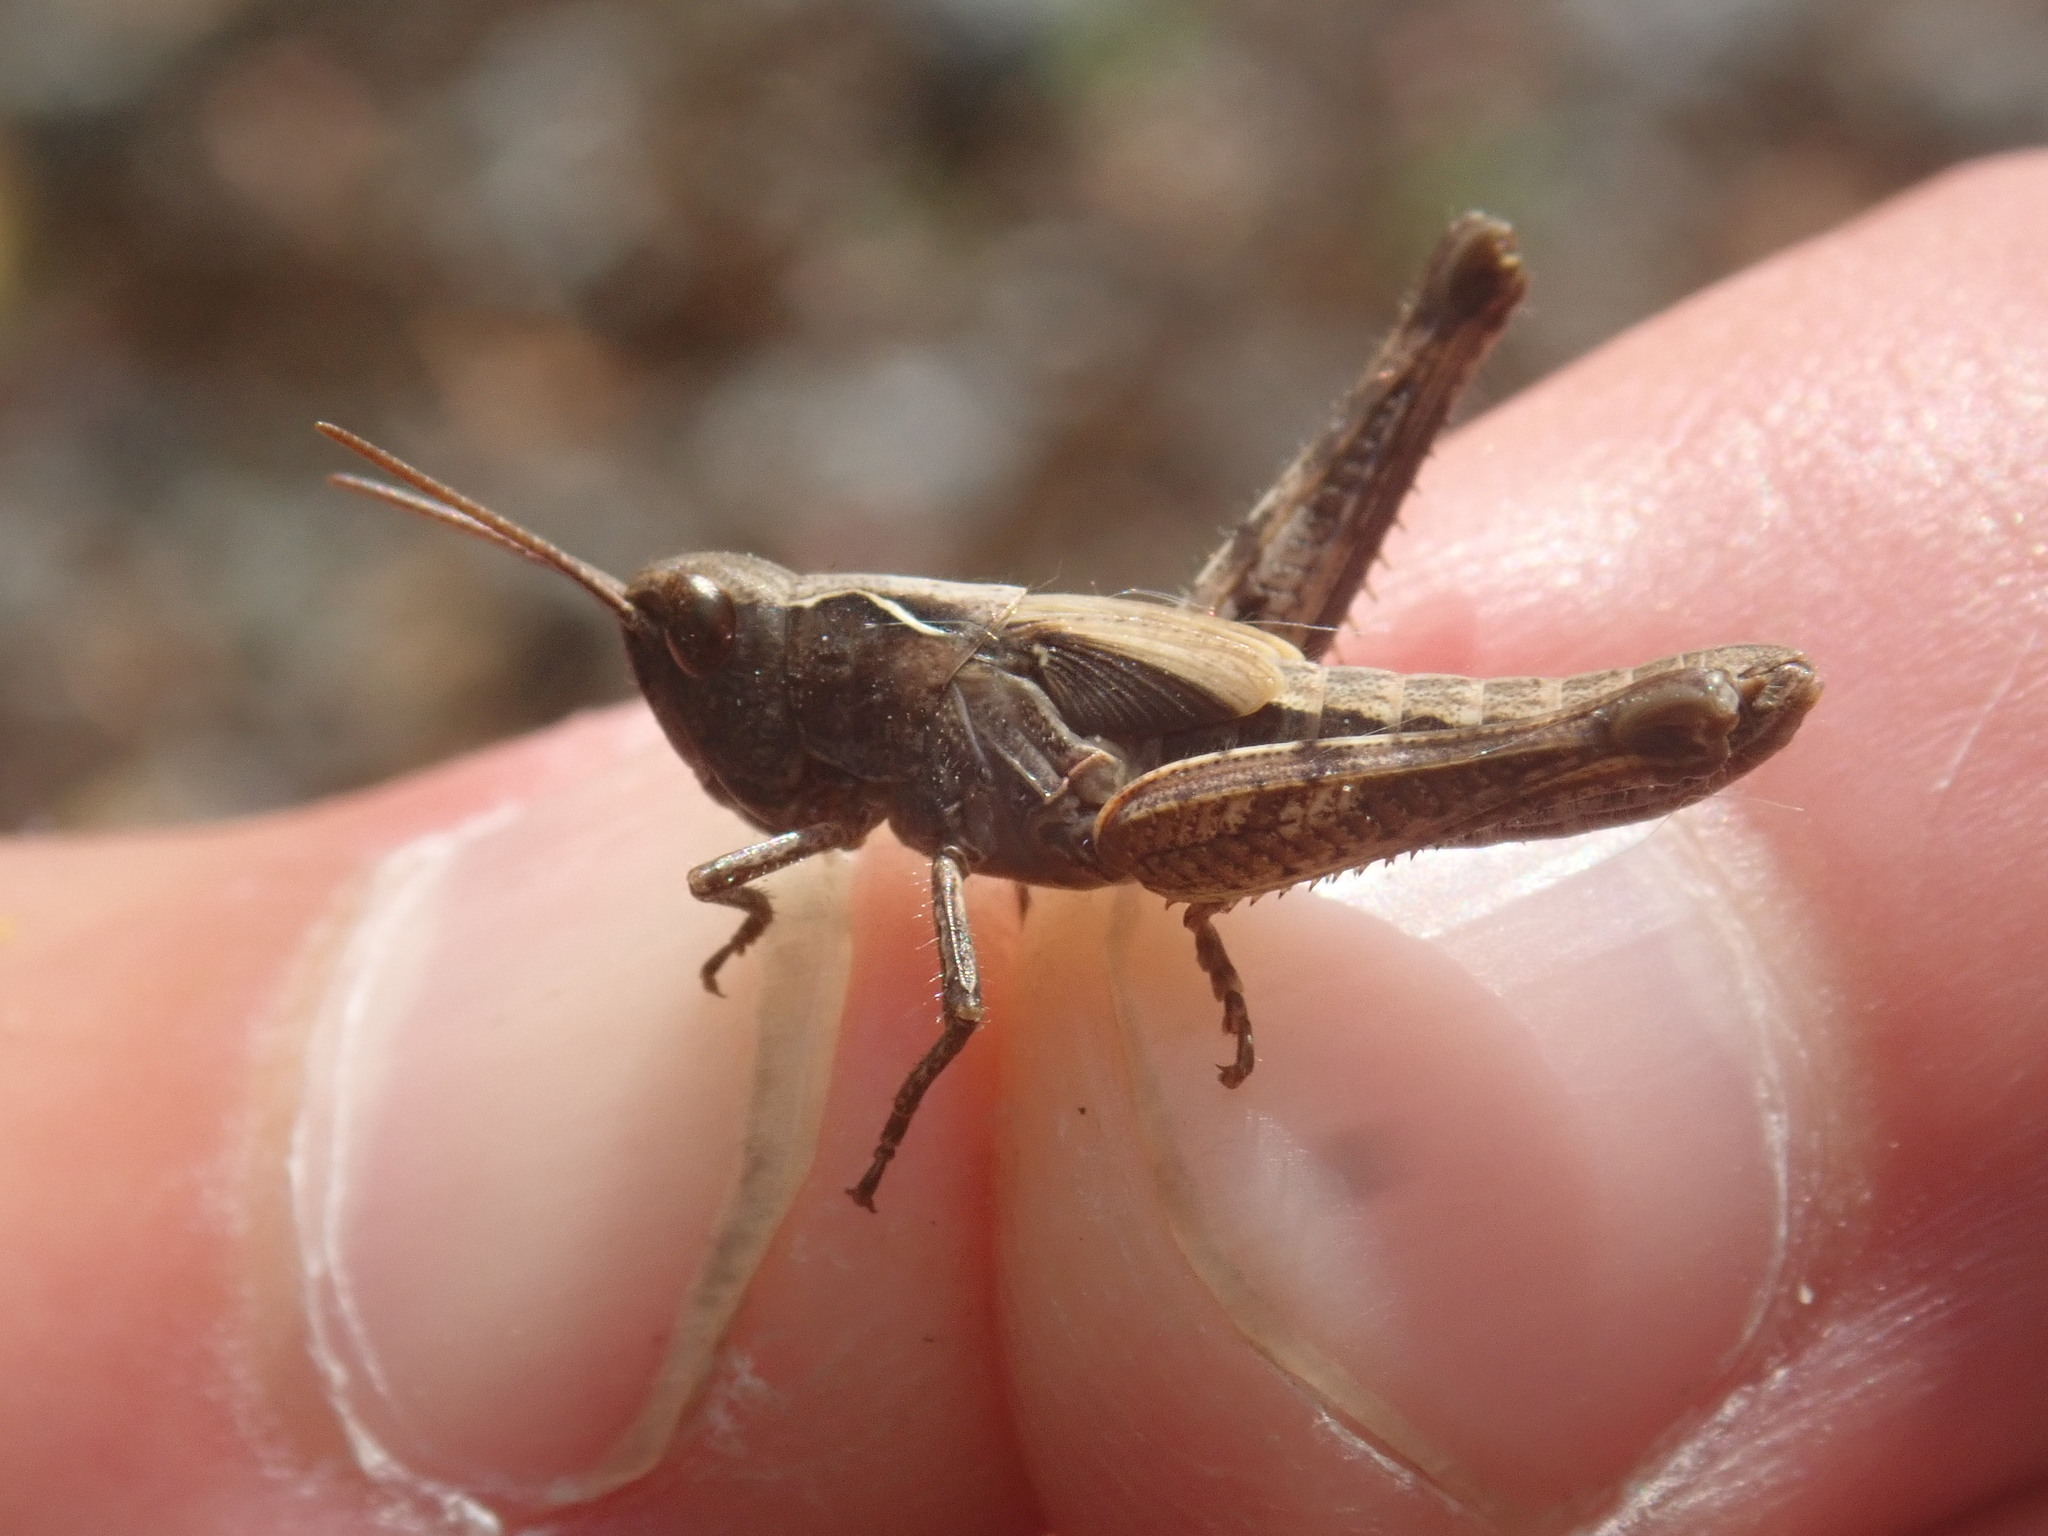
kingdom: Animalia
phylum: Arthropoda
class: Insecta
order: Orthoptera
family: Acrididae
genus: Glyptobothrus
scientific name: Glyptobothrus
